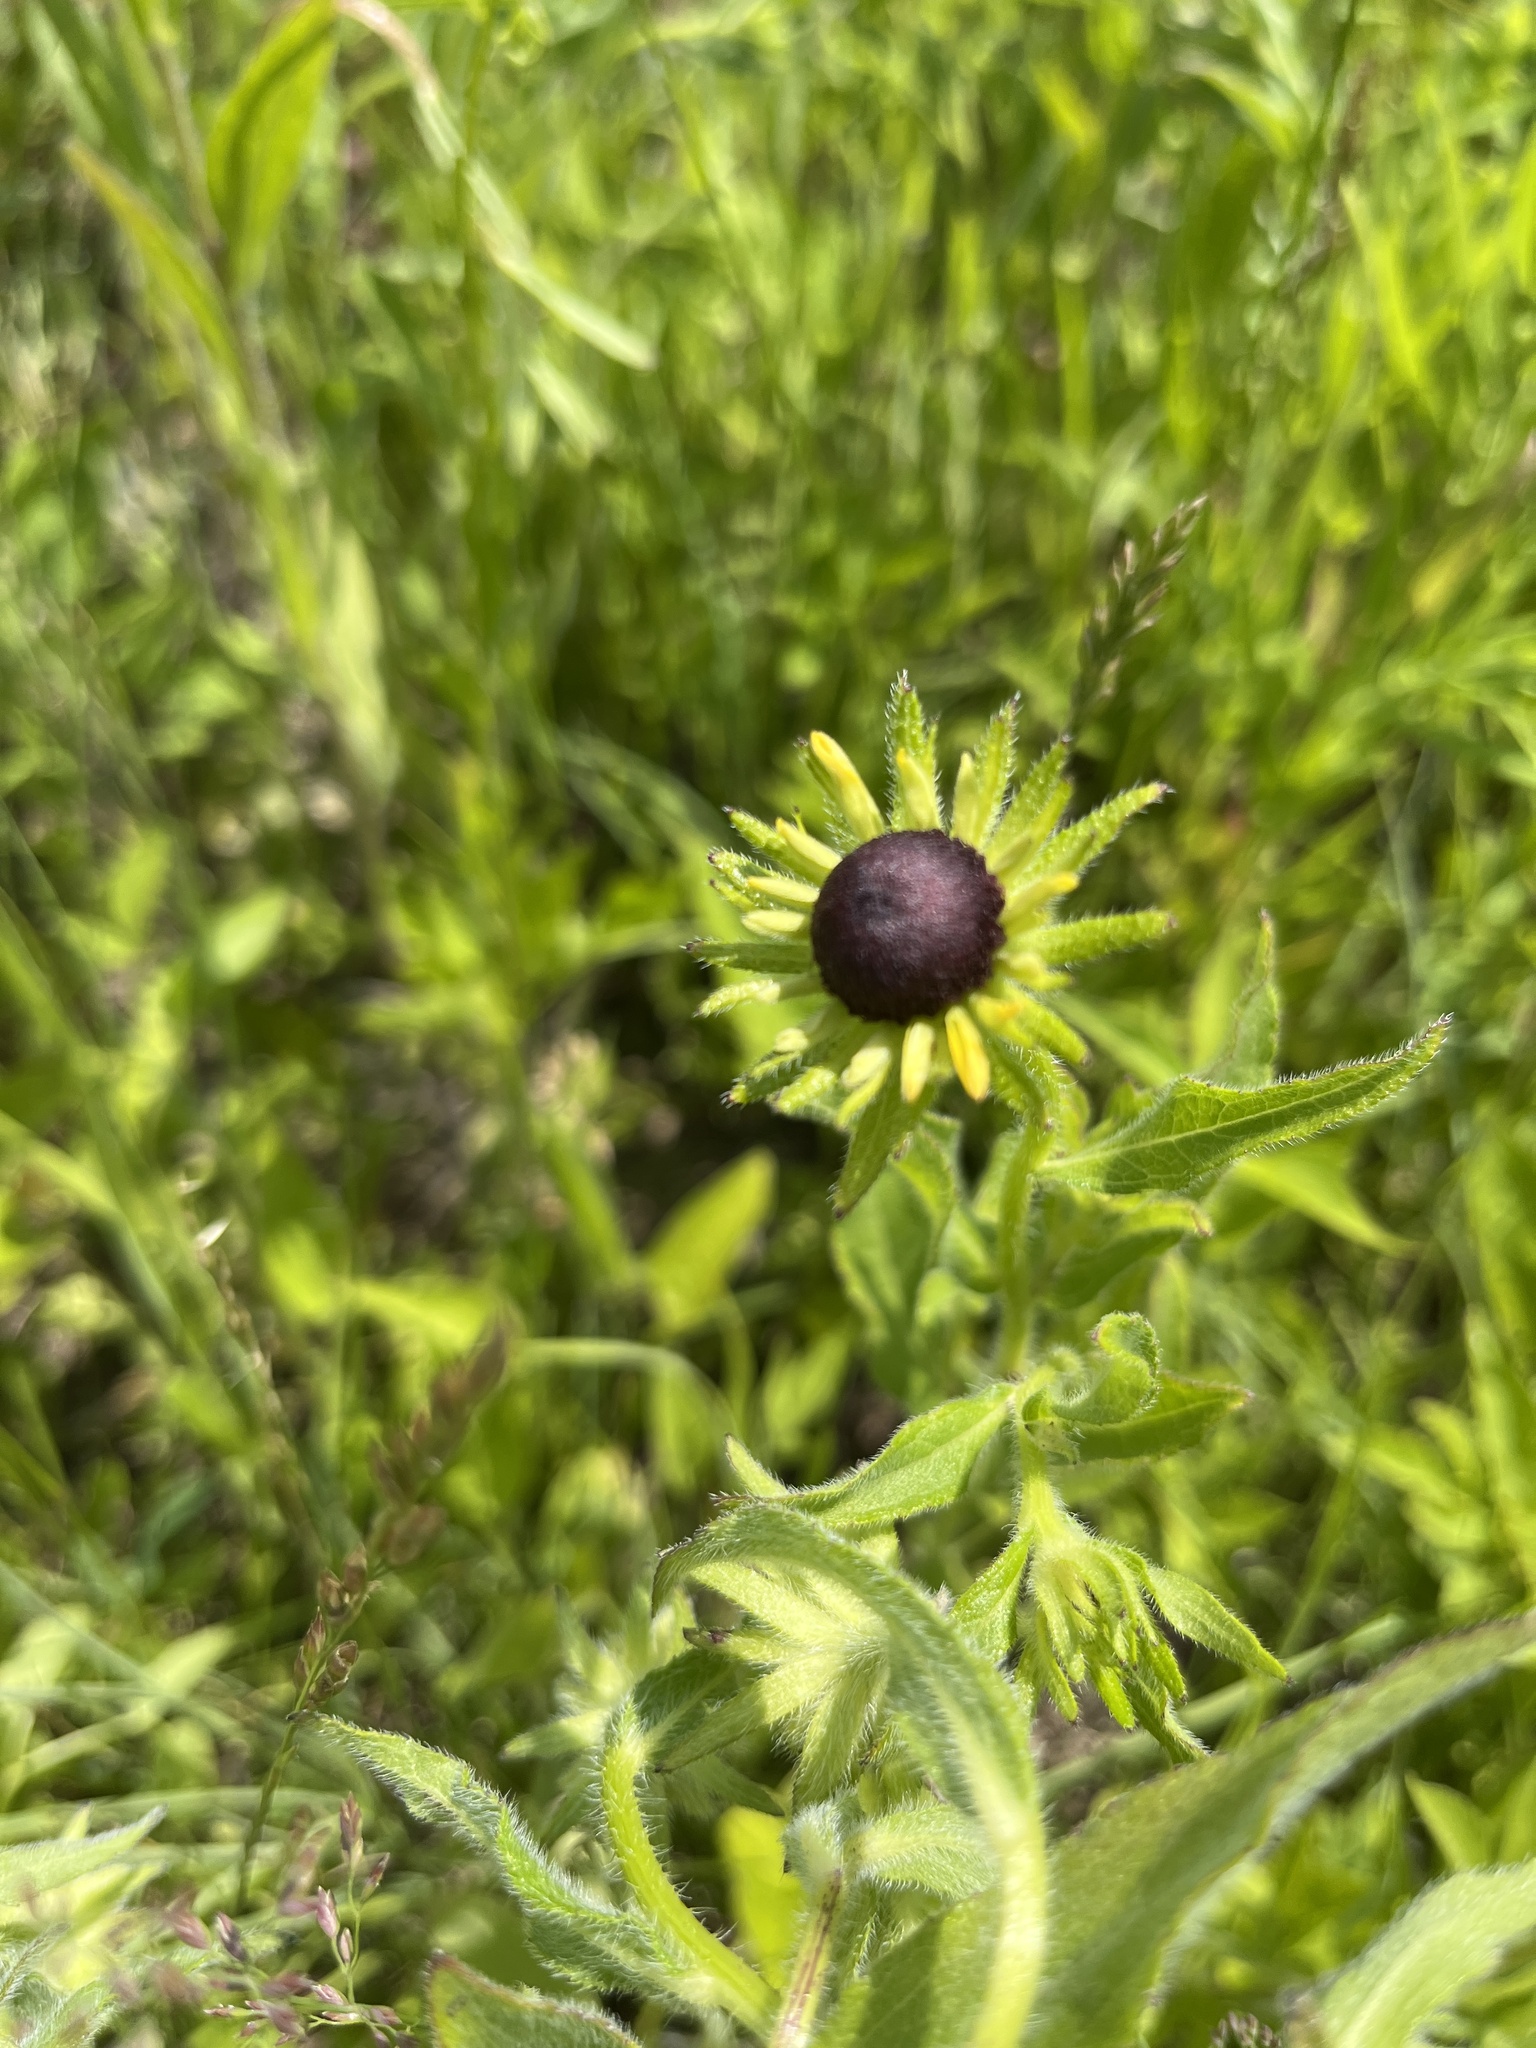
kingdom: Plantae
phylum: Tracheophyta
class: Magnoliopsida
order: Asterales
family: Asteraceae
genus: Rudbeckia
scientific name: Rudbeckia hirta
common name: Black-eyed-susan
